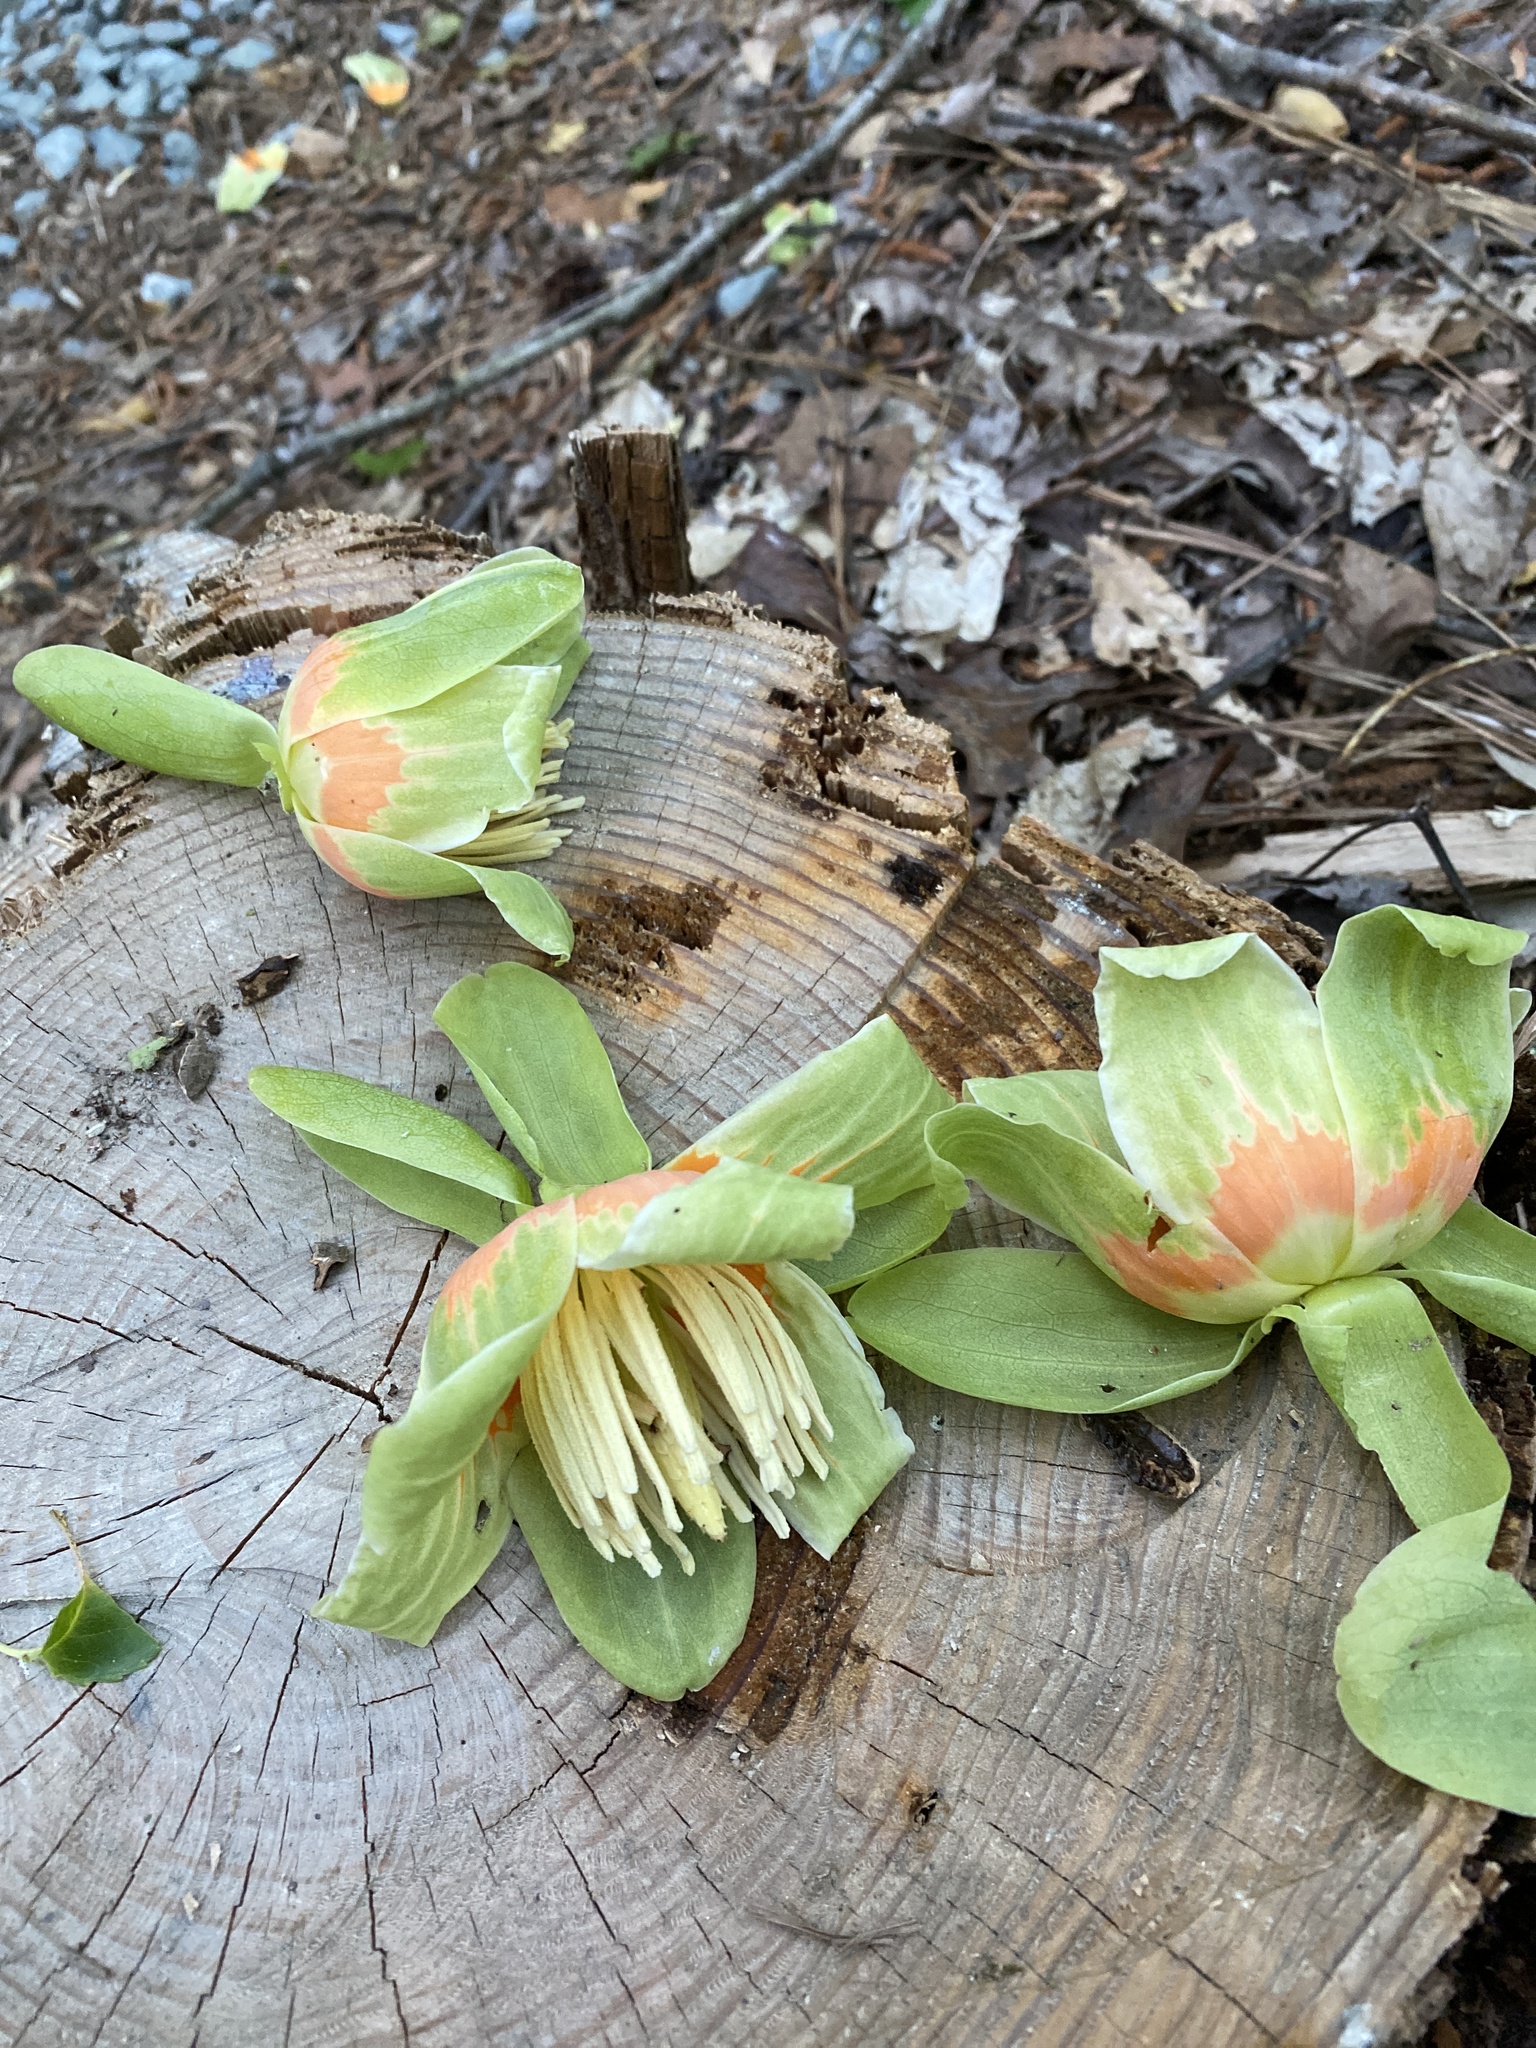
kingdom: Plantae
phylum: Tracheophyta
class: Magnoliopsida
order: Magnoliales
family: Magnoliaceae
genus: Liriodendron
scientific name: Liriodendron tulipifera
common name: Tulip tree
